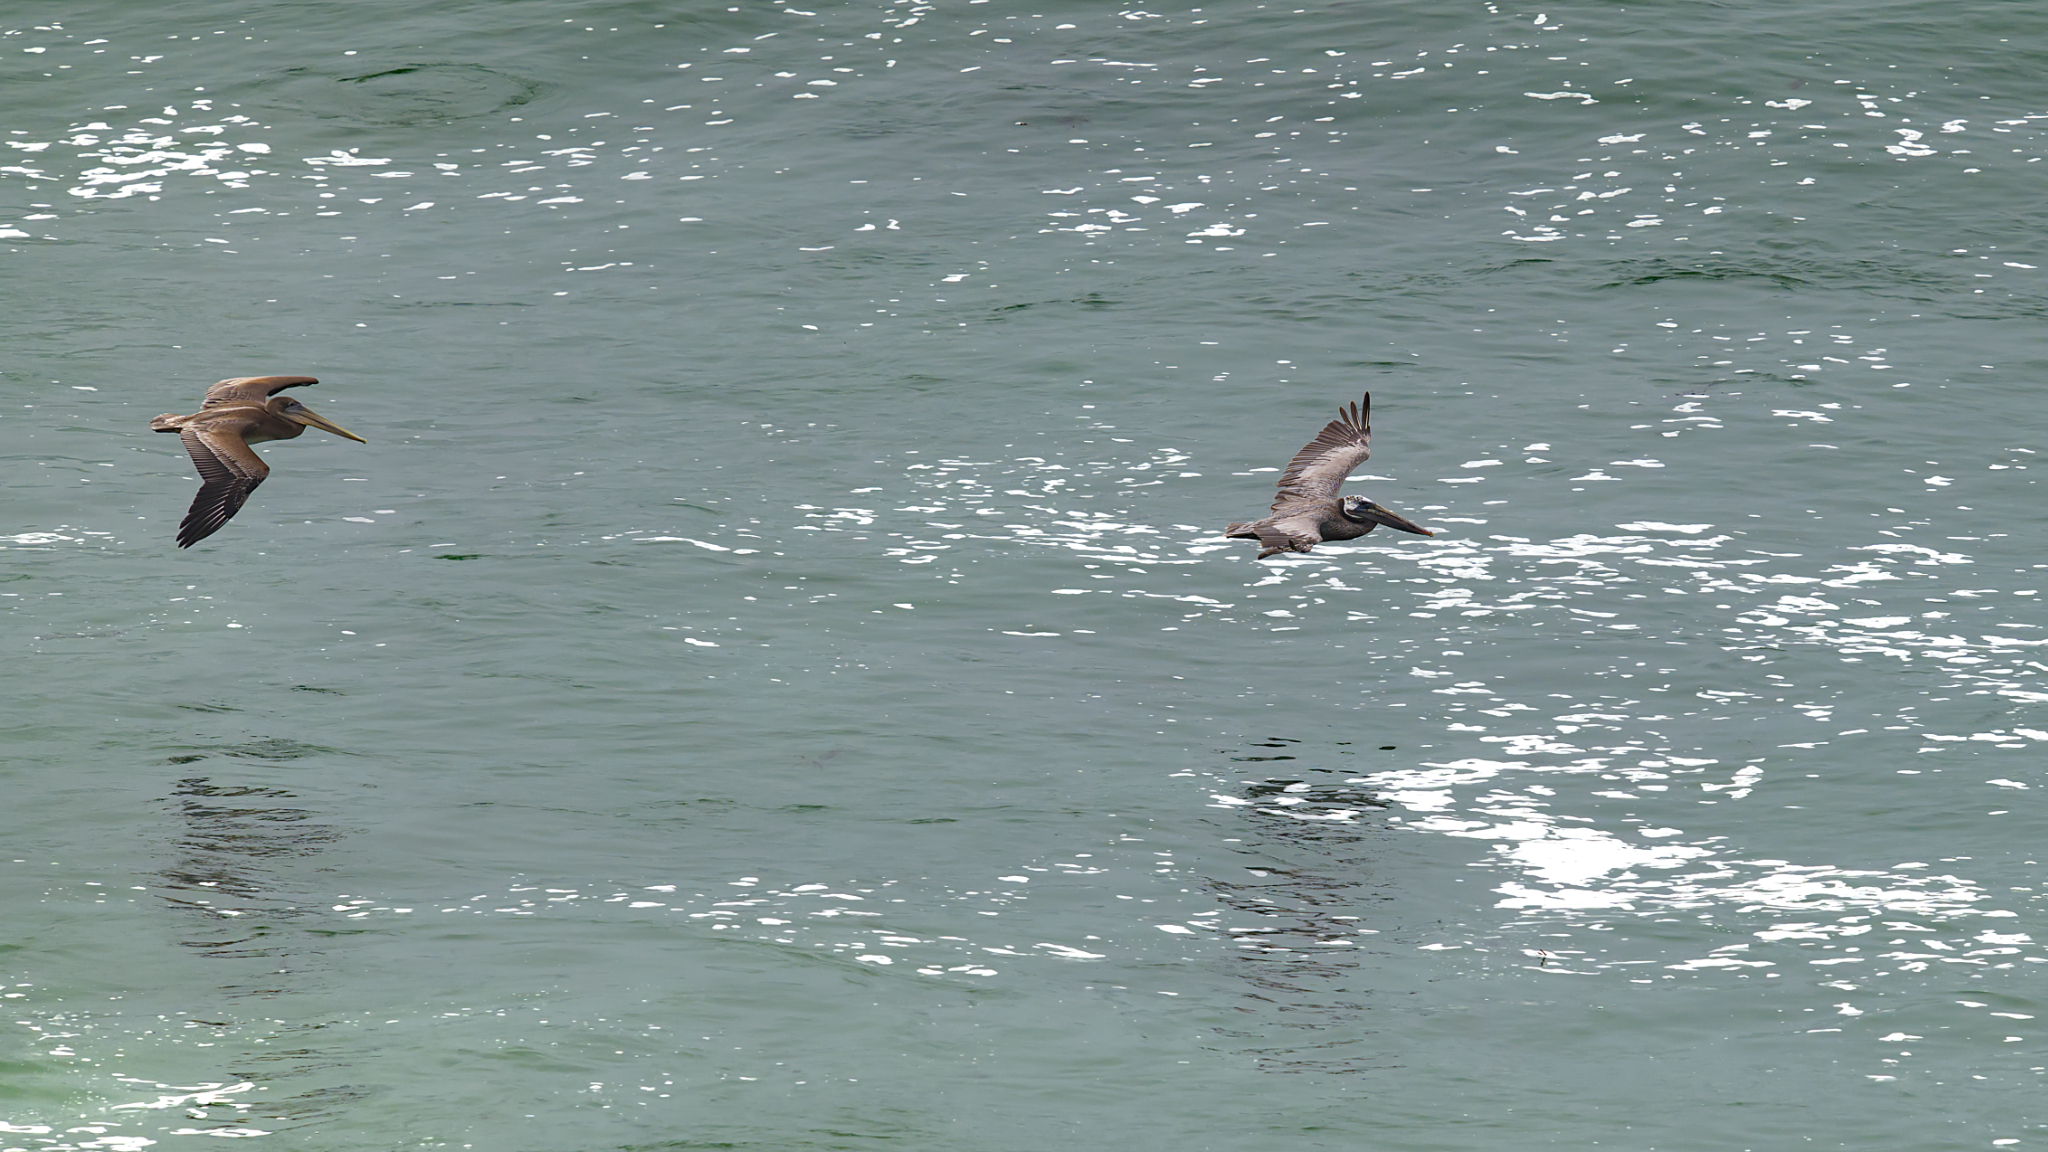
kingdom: Animalia
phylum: Chordata
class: Aves
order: Pelecaniformes
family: Pelecanidae
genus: Pelecanus
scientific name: Pelecanus occidentalis
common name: Brown pelican
